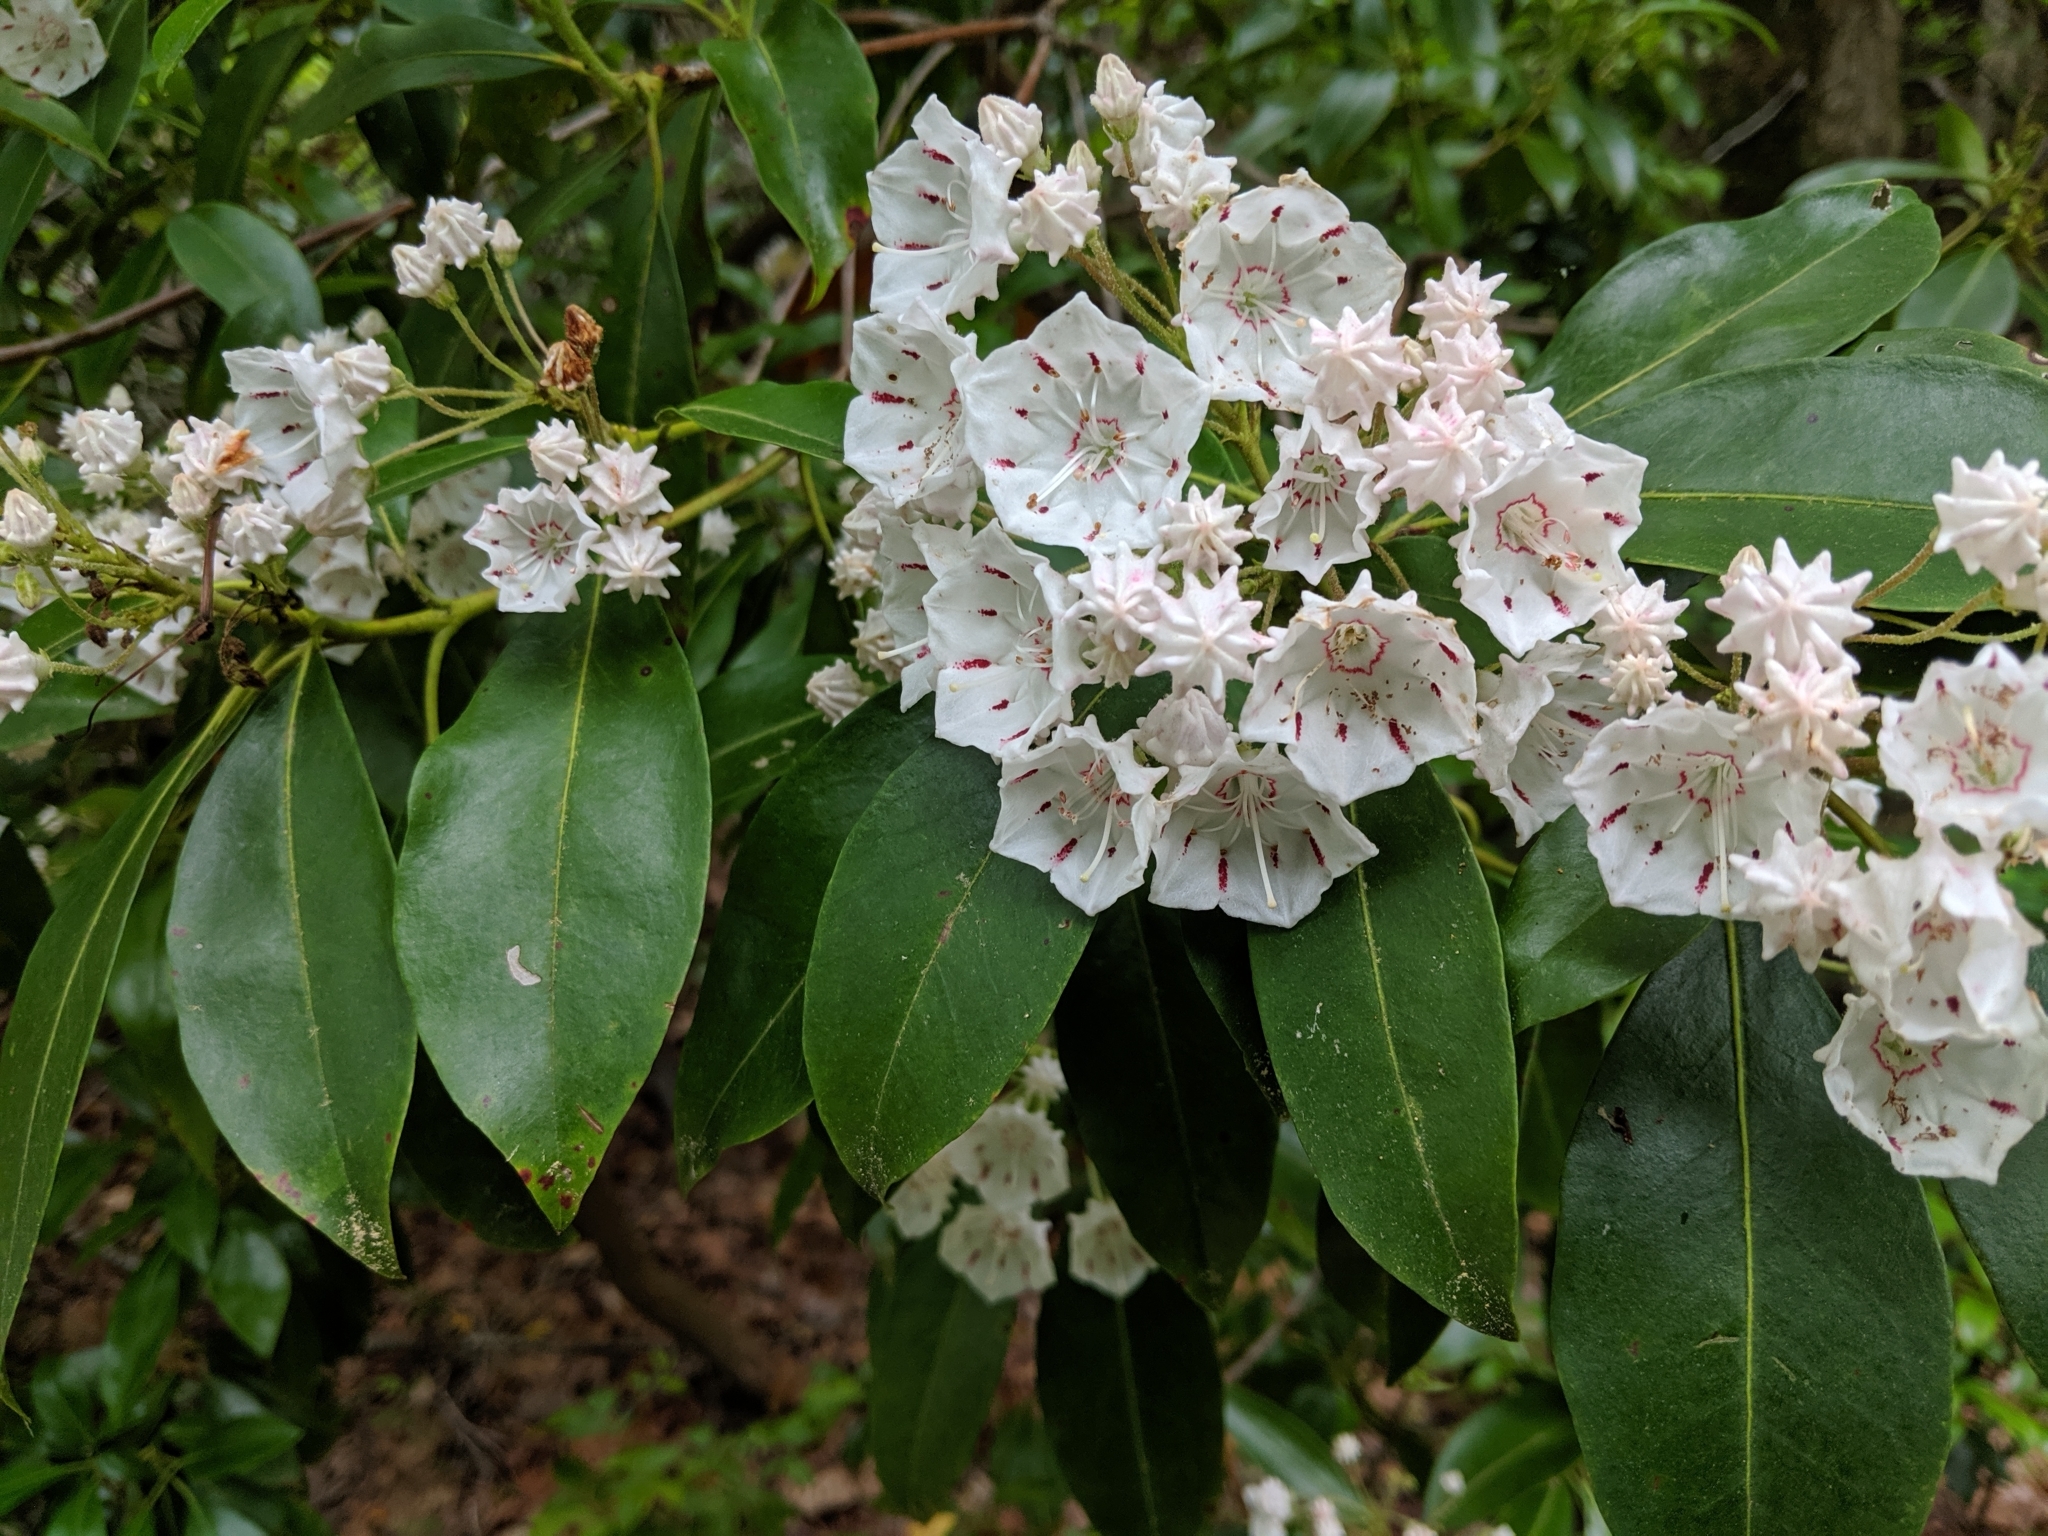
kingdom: Plantae
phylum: Tracheophyta
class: Magnoliopsida
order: Ericales
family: Ericaceae
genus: Kalmia
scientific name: Kalmia latifolia
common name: Mountain-laurel
